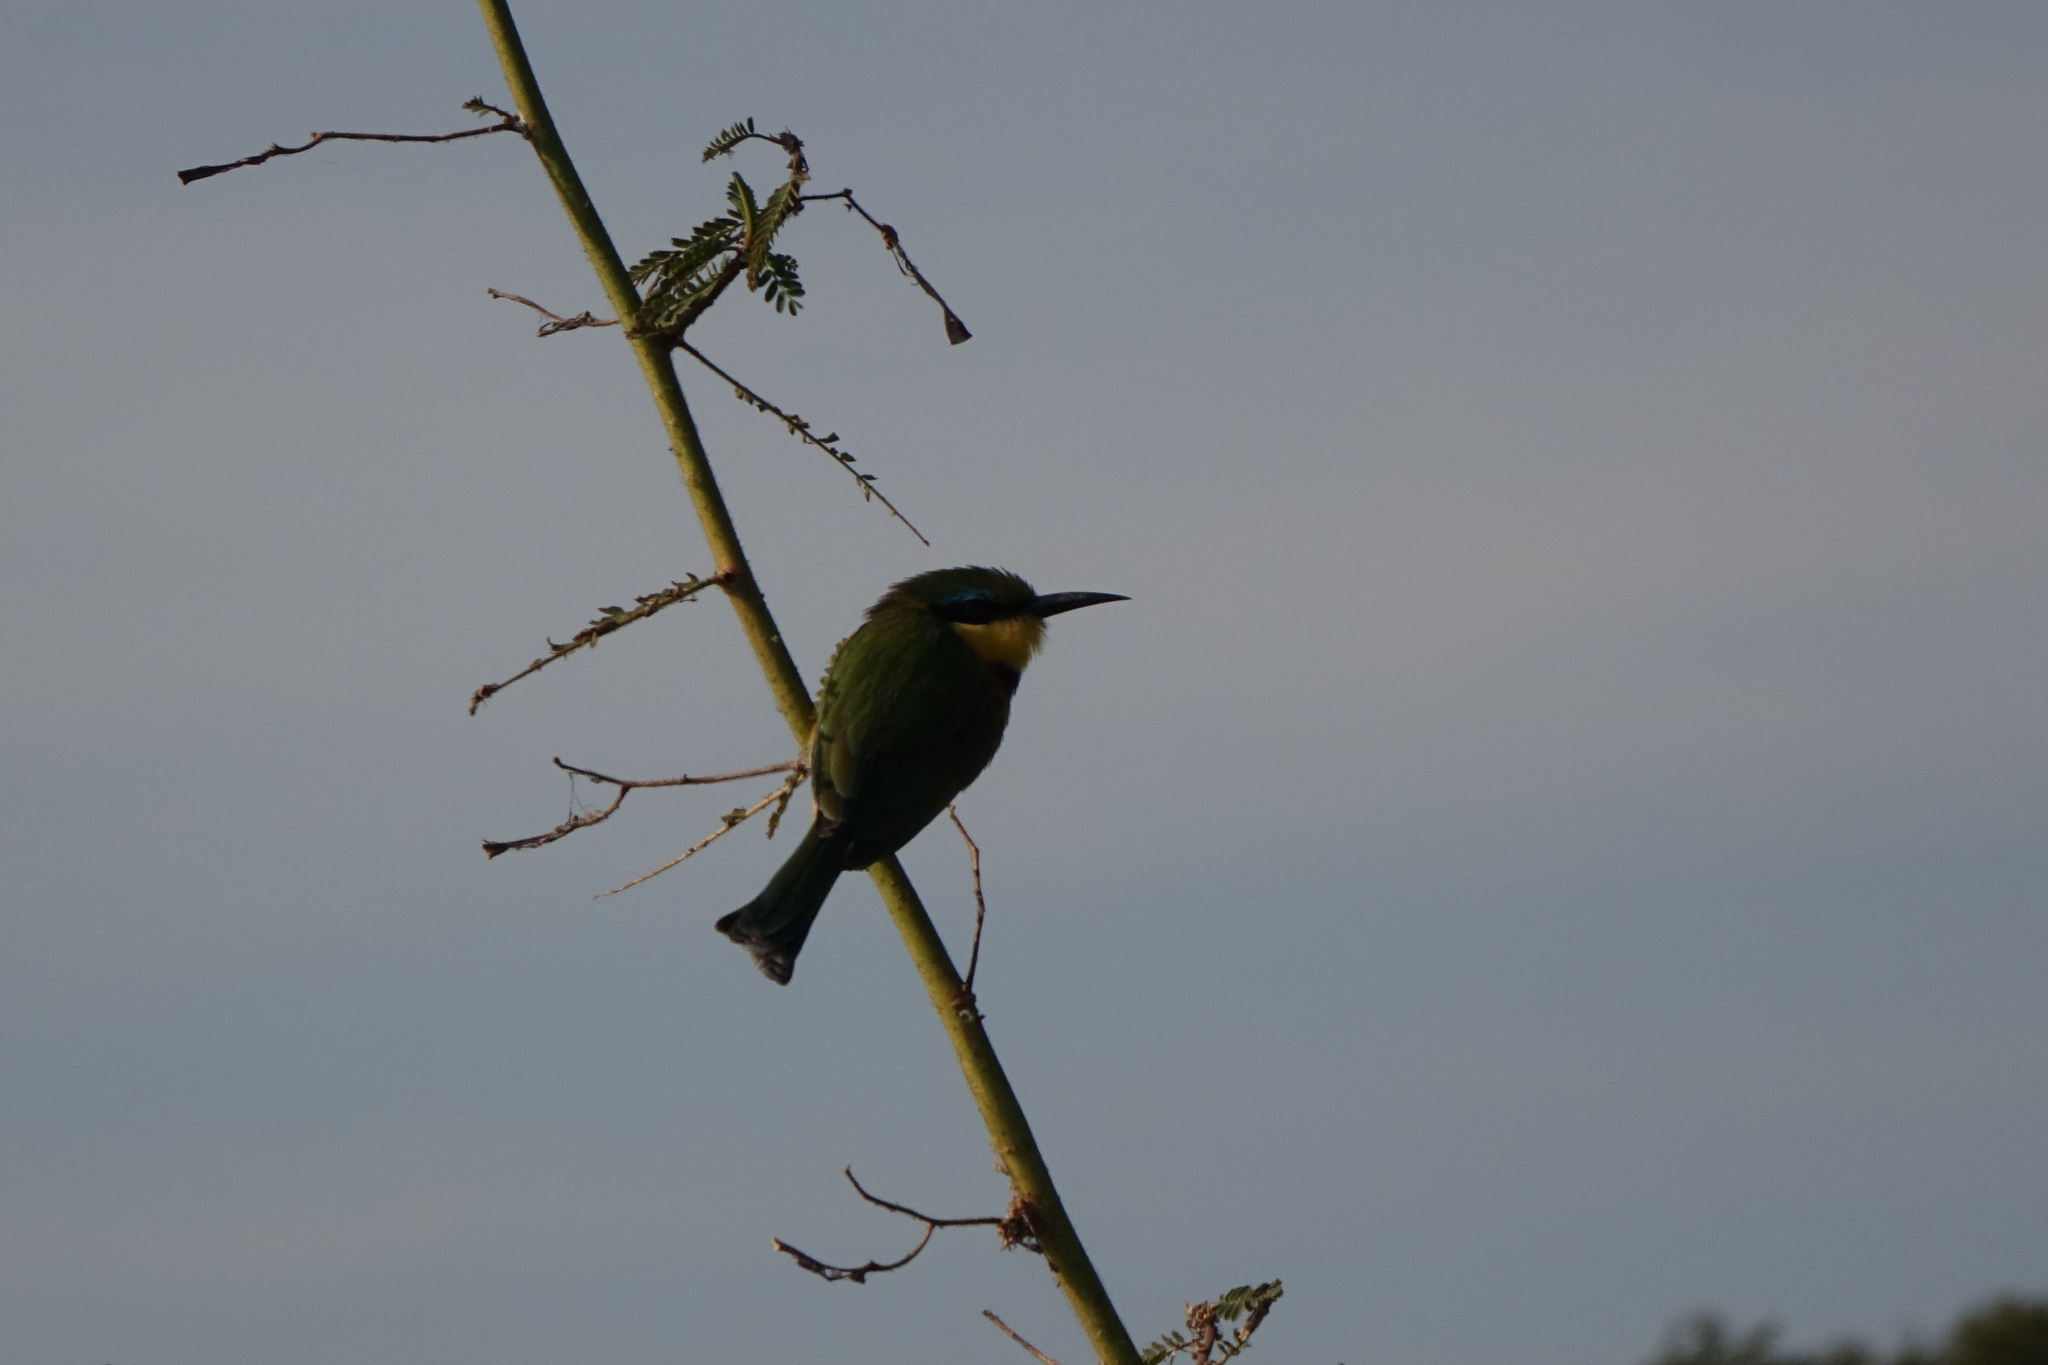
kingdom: Animalia
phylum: Chordata
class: Aves
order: Coraciiformes
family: Meropidae
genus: Merops
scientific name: Merops pusillus
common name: Little bee-eater
